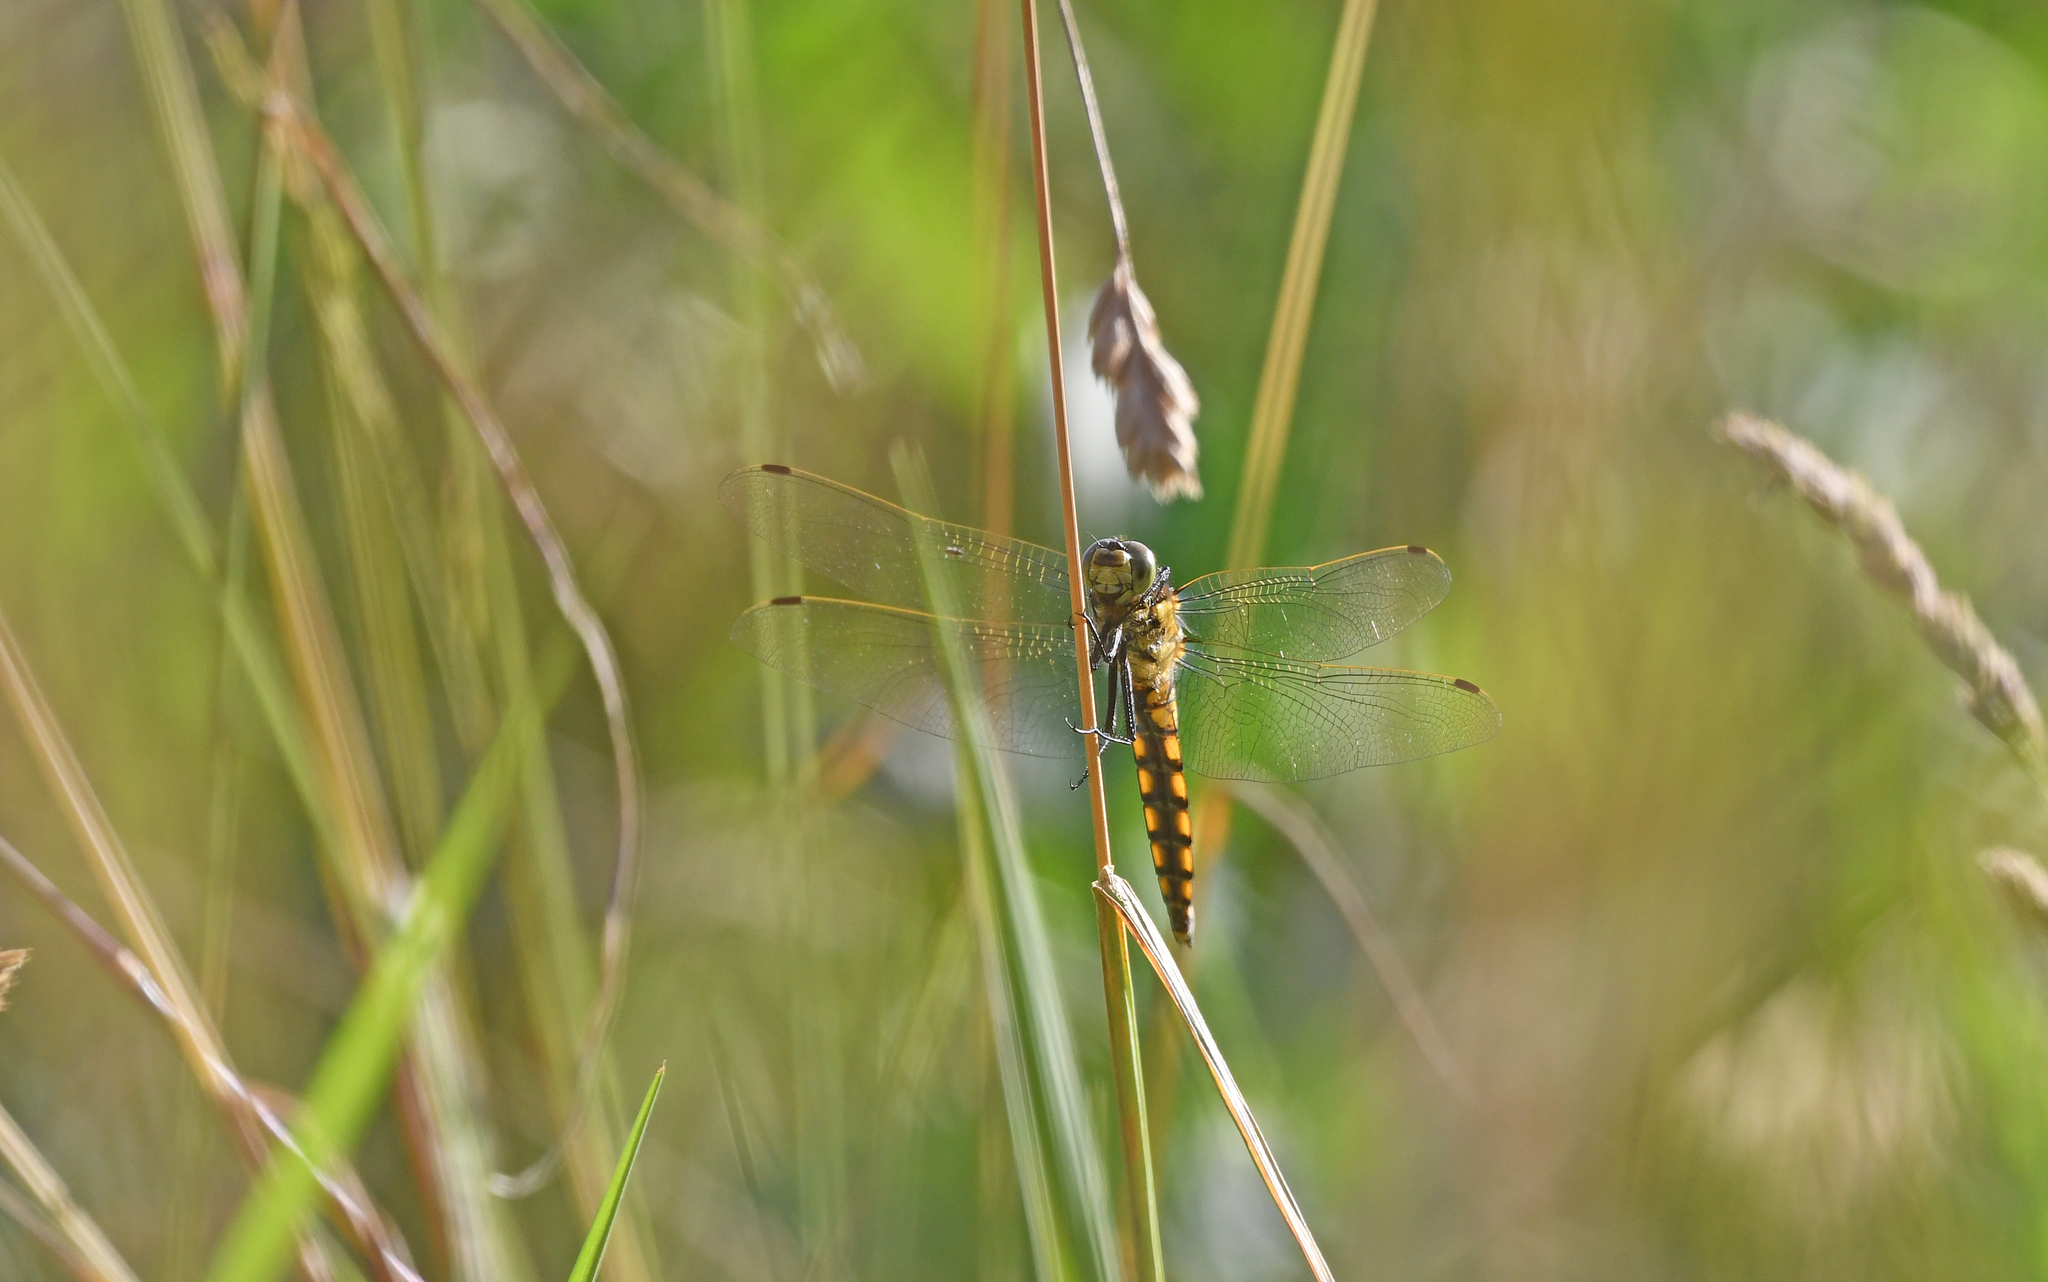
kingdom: Animalia
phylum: Arthropoda
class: Insecta
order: Odonata
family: Libellulidae
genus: Orthetrum
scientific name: Orthetrum cancellatum
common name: Black-tailed skimmer
